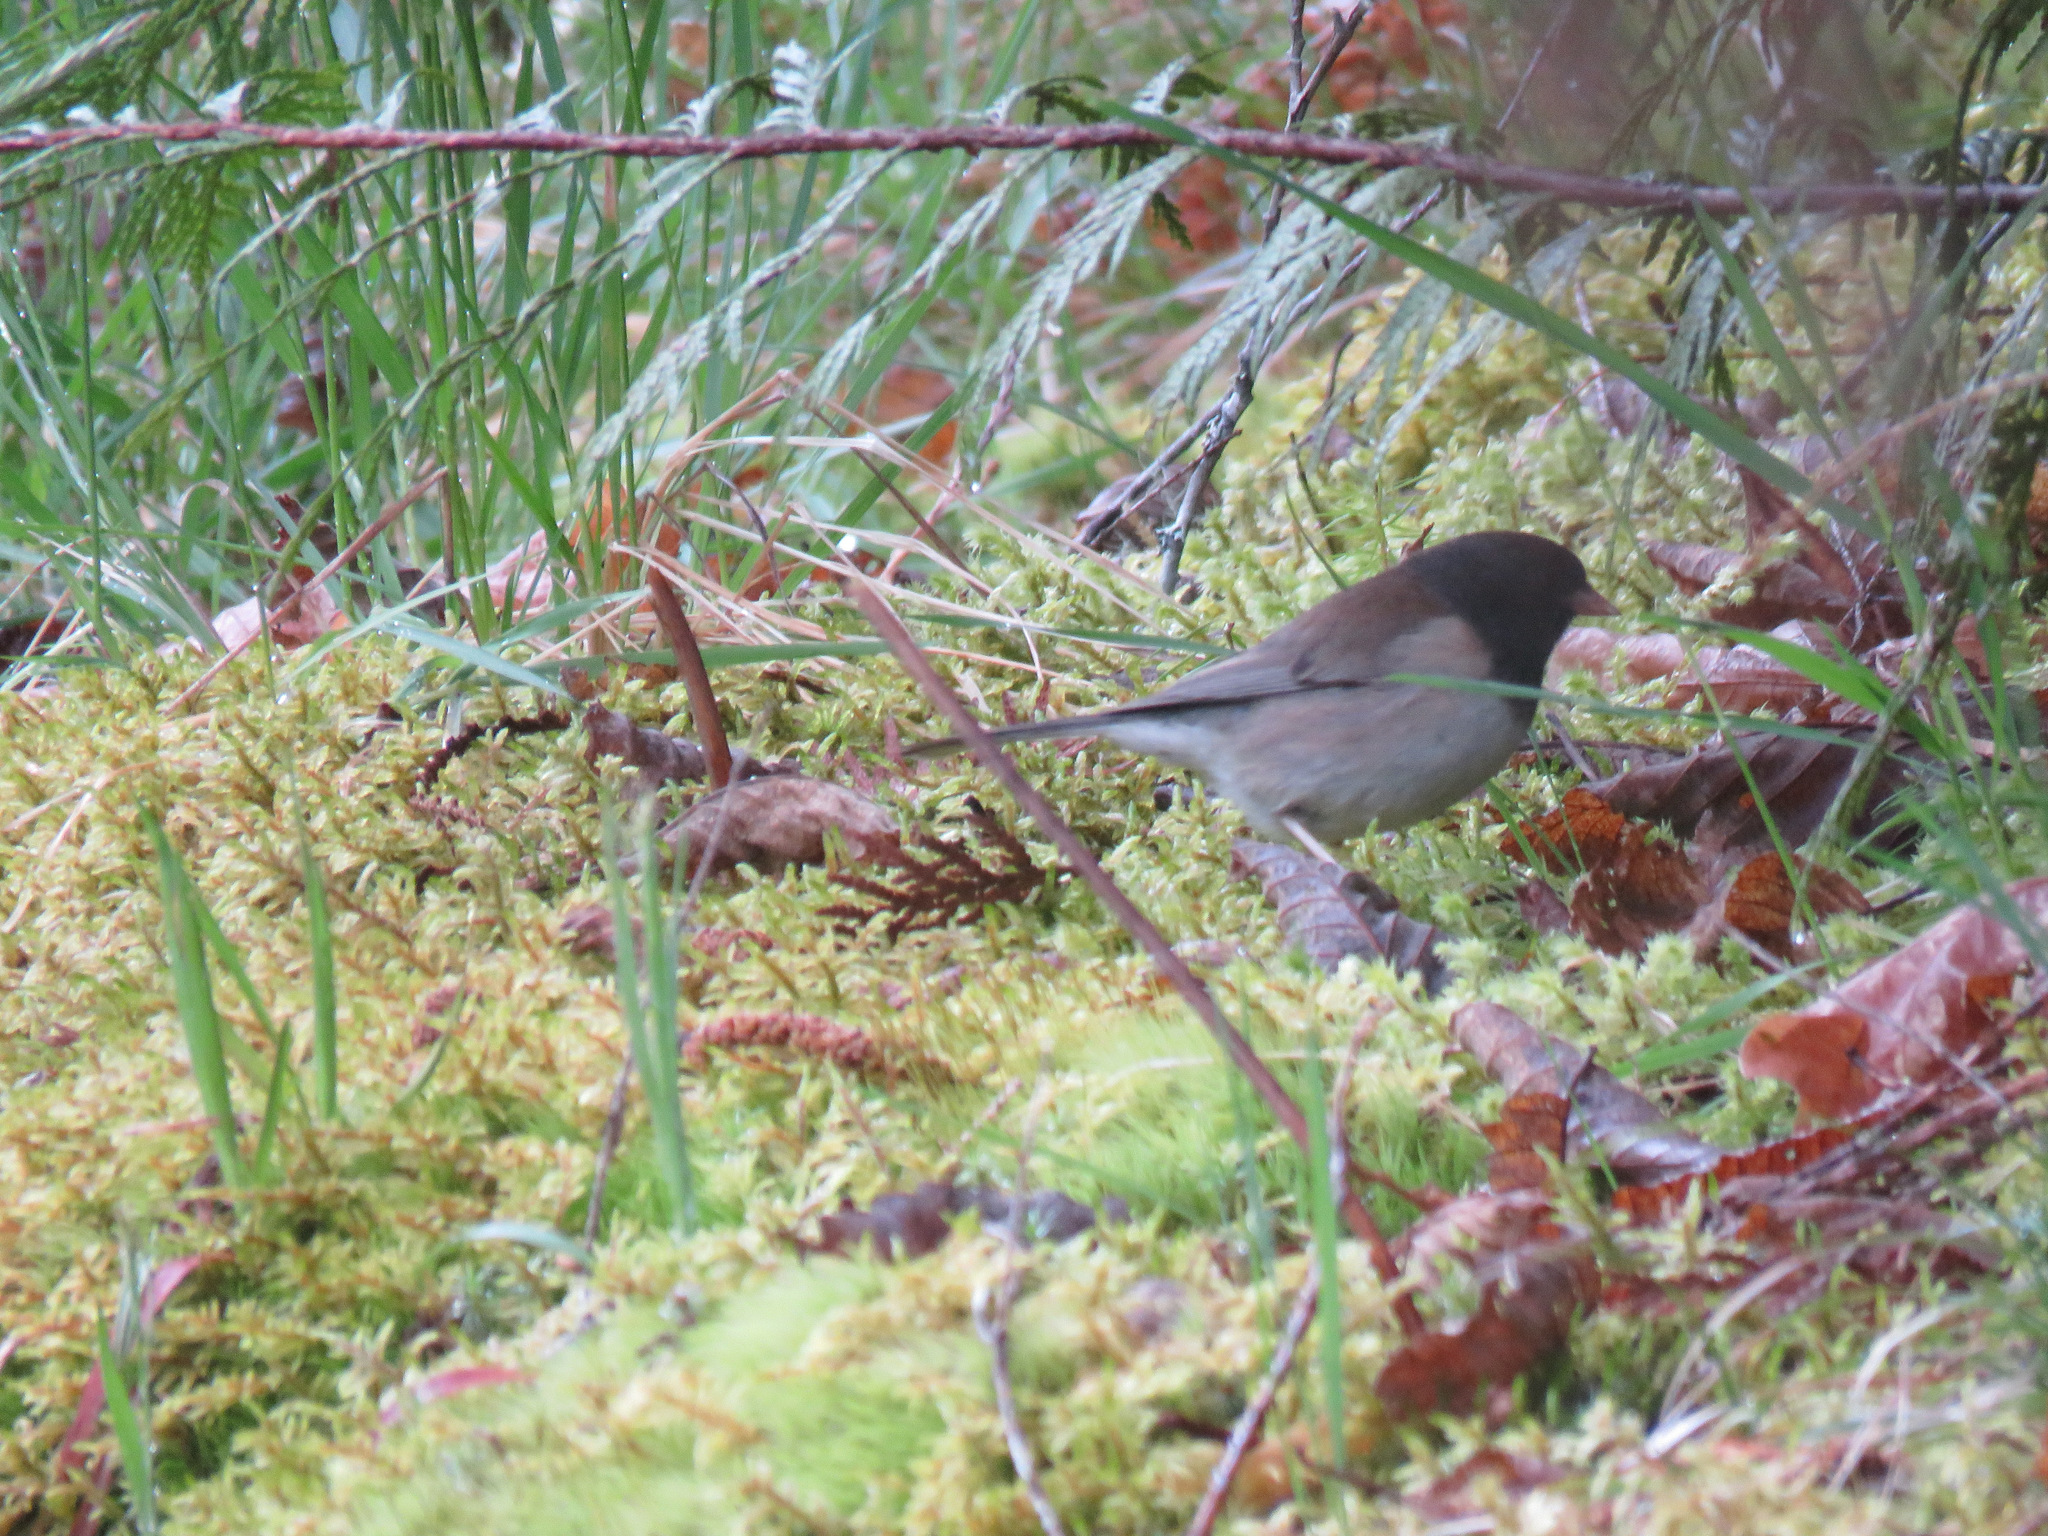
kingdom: Animalia
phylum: Chordata
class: Aves
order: Passeriformes
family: Passerellidae
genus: Junco
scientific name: Junco hyemalis
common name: Dark-eyed junco
